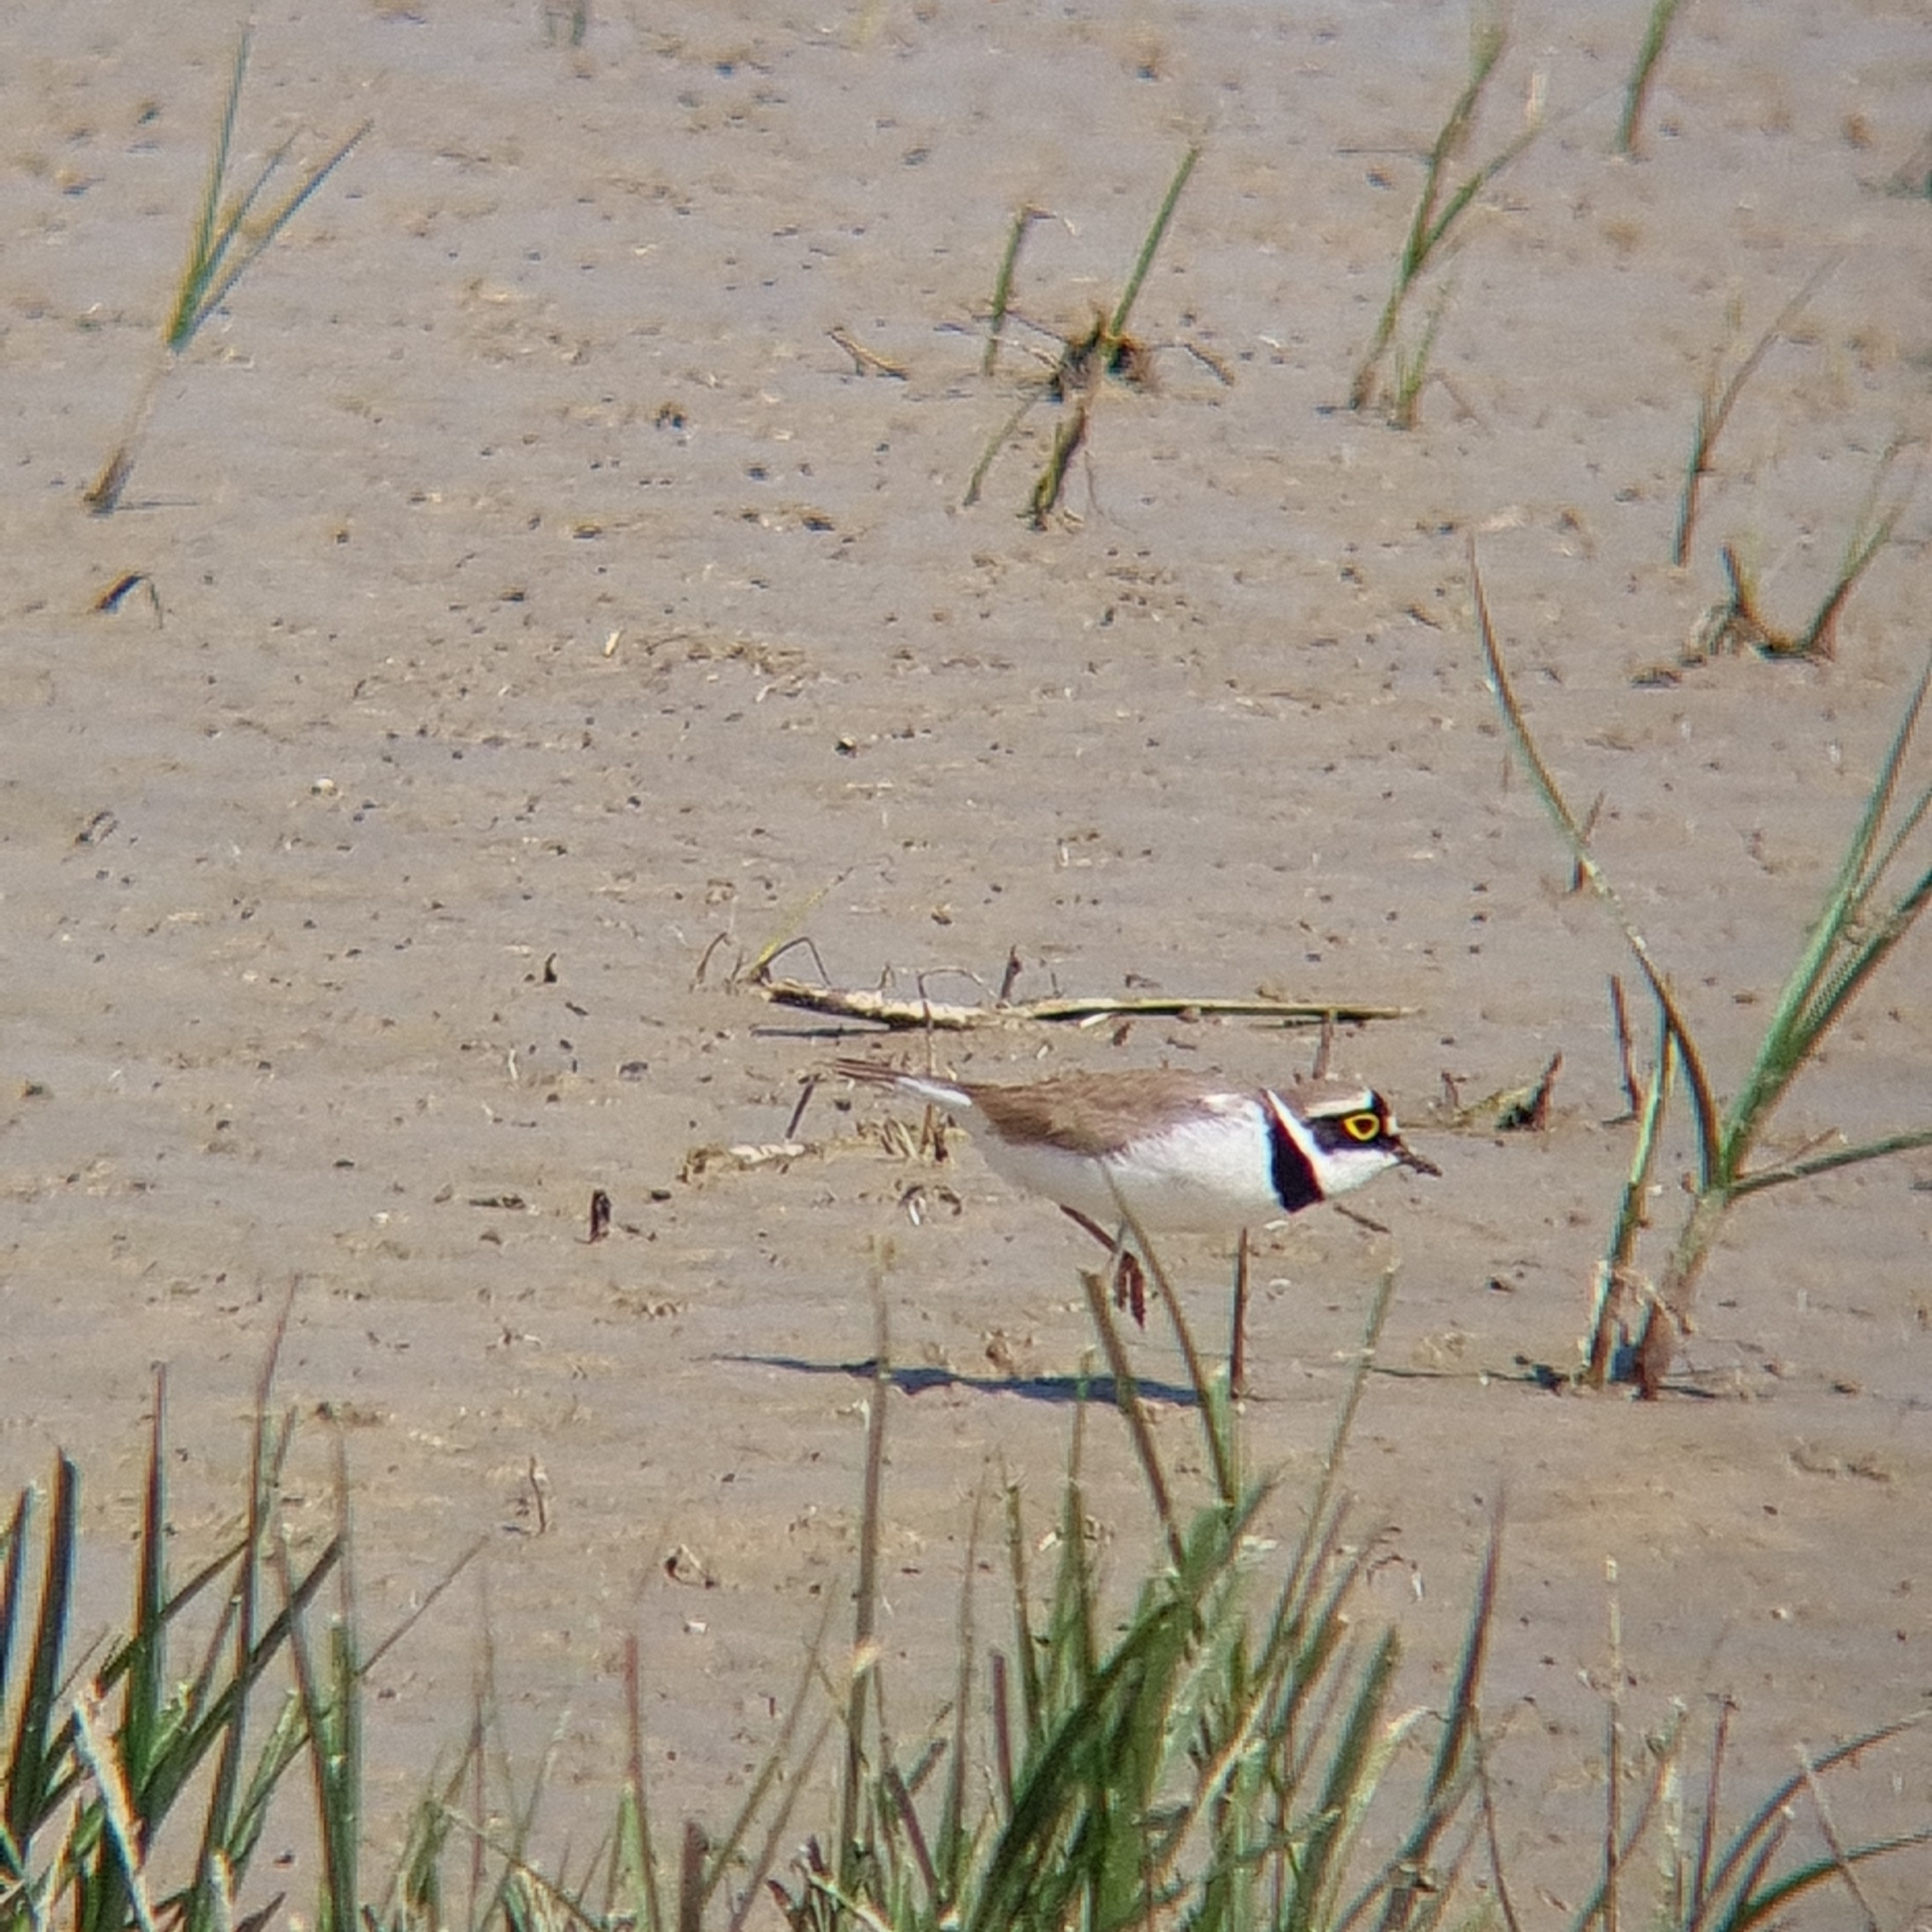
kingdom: Animalia
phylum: Chordata
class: Aves
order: Charadriiformes
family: Charadriidae
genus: Charadrius
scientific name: Charadrius dubius
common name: Little ringed plover
